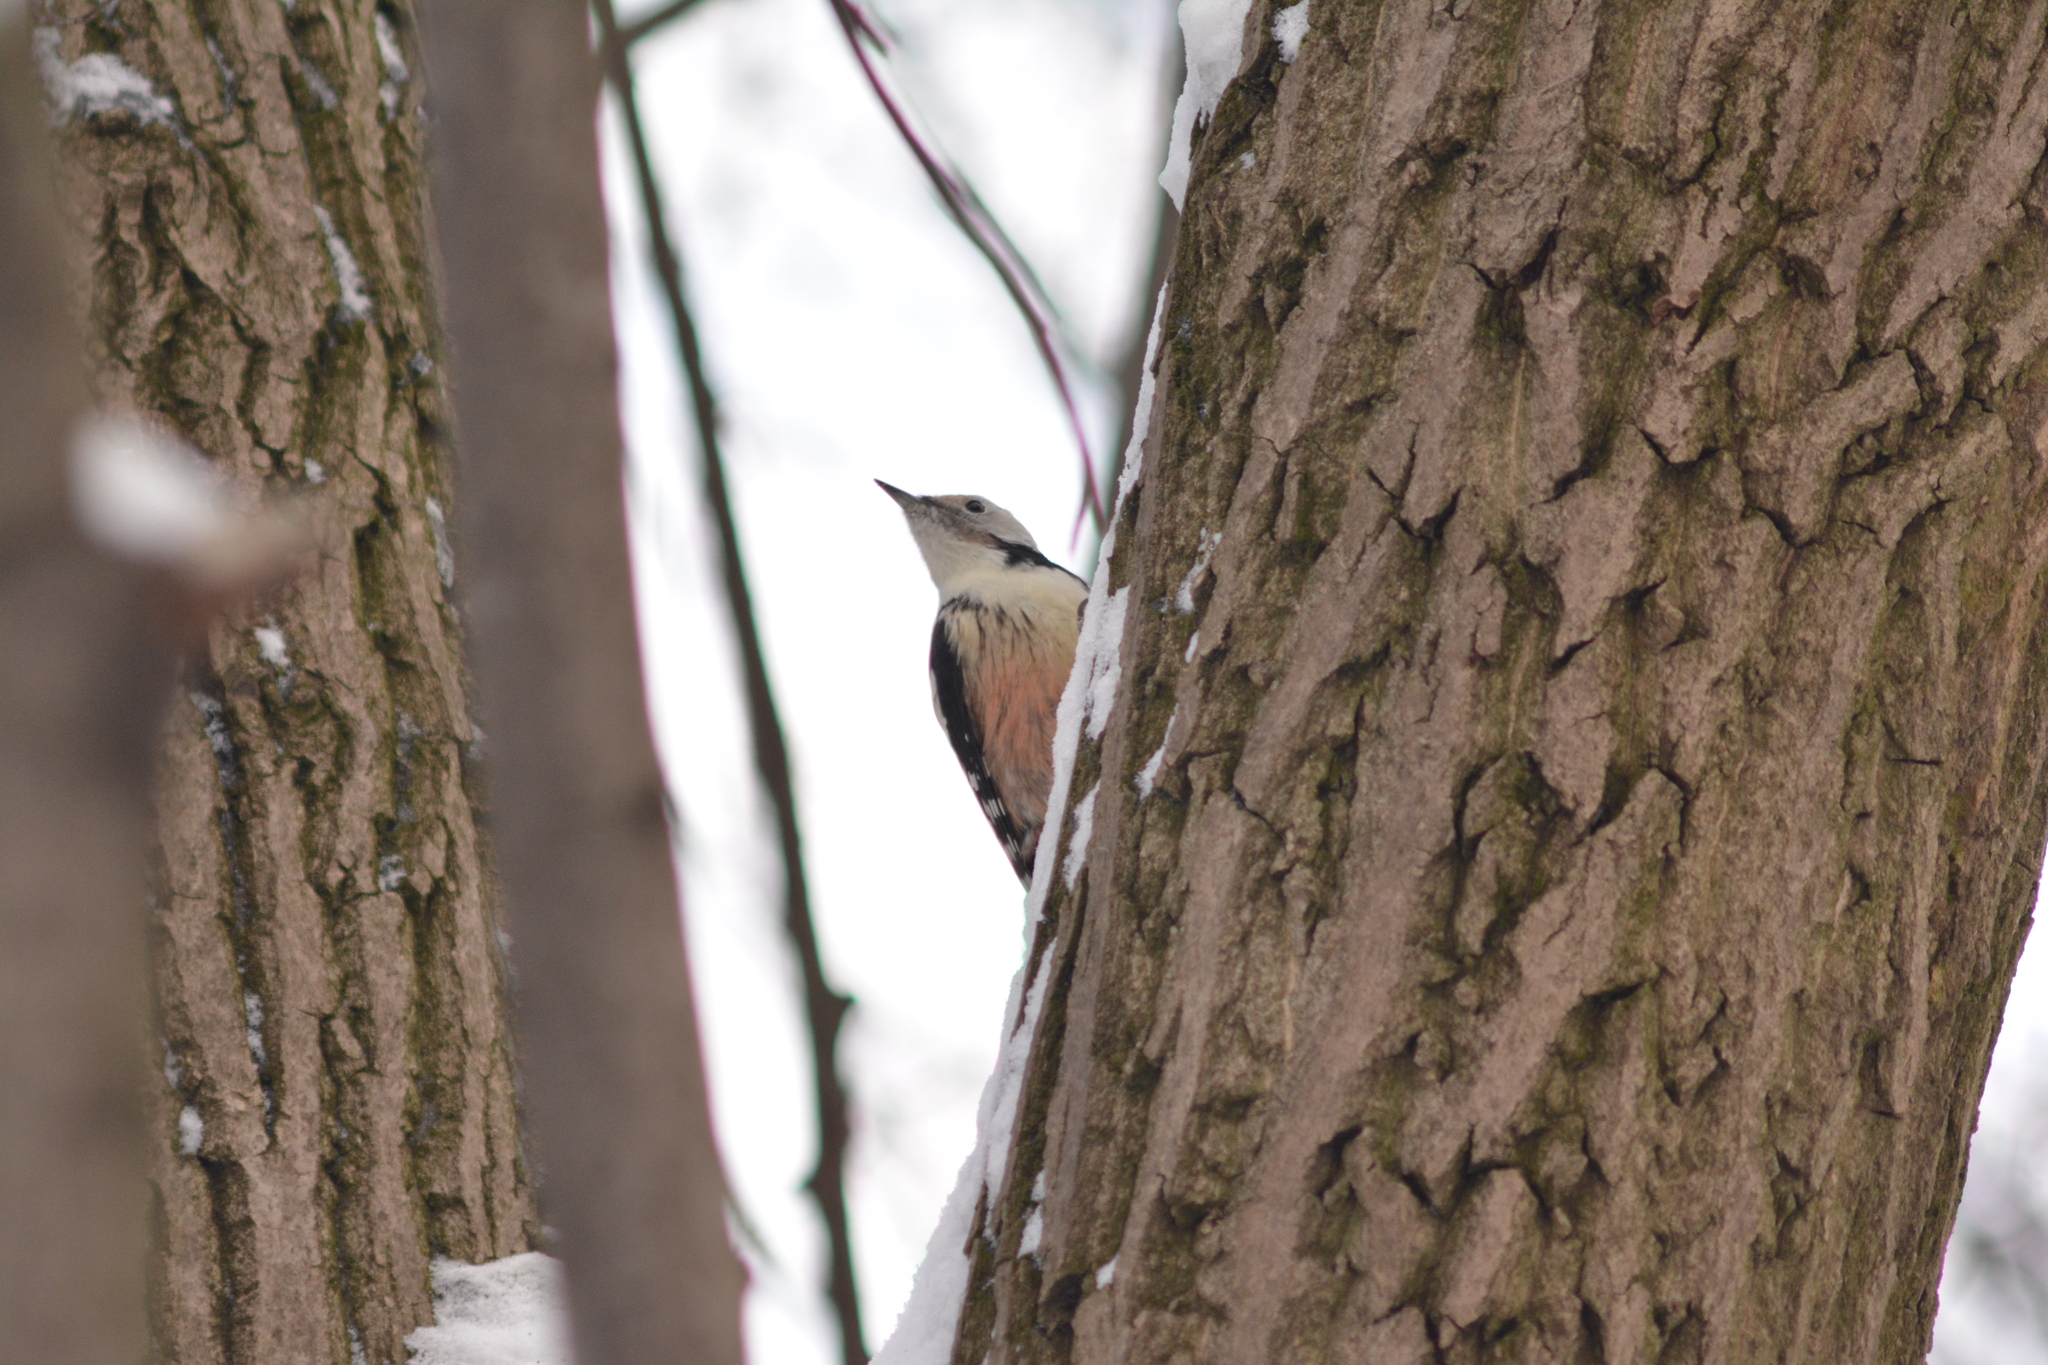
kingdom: Animalia
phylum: Chordata
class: Aves
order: Piciformes
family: Picidae
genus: Dendrocoptes
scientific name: Dendrocoptes medius
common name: Middle spotted woodpecker
